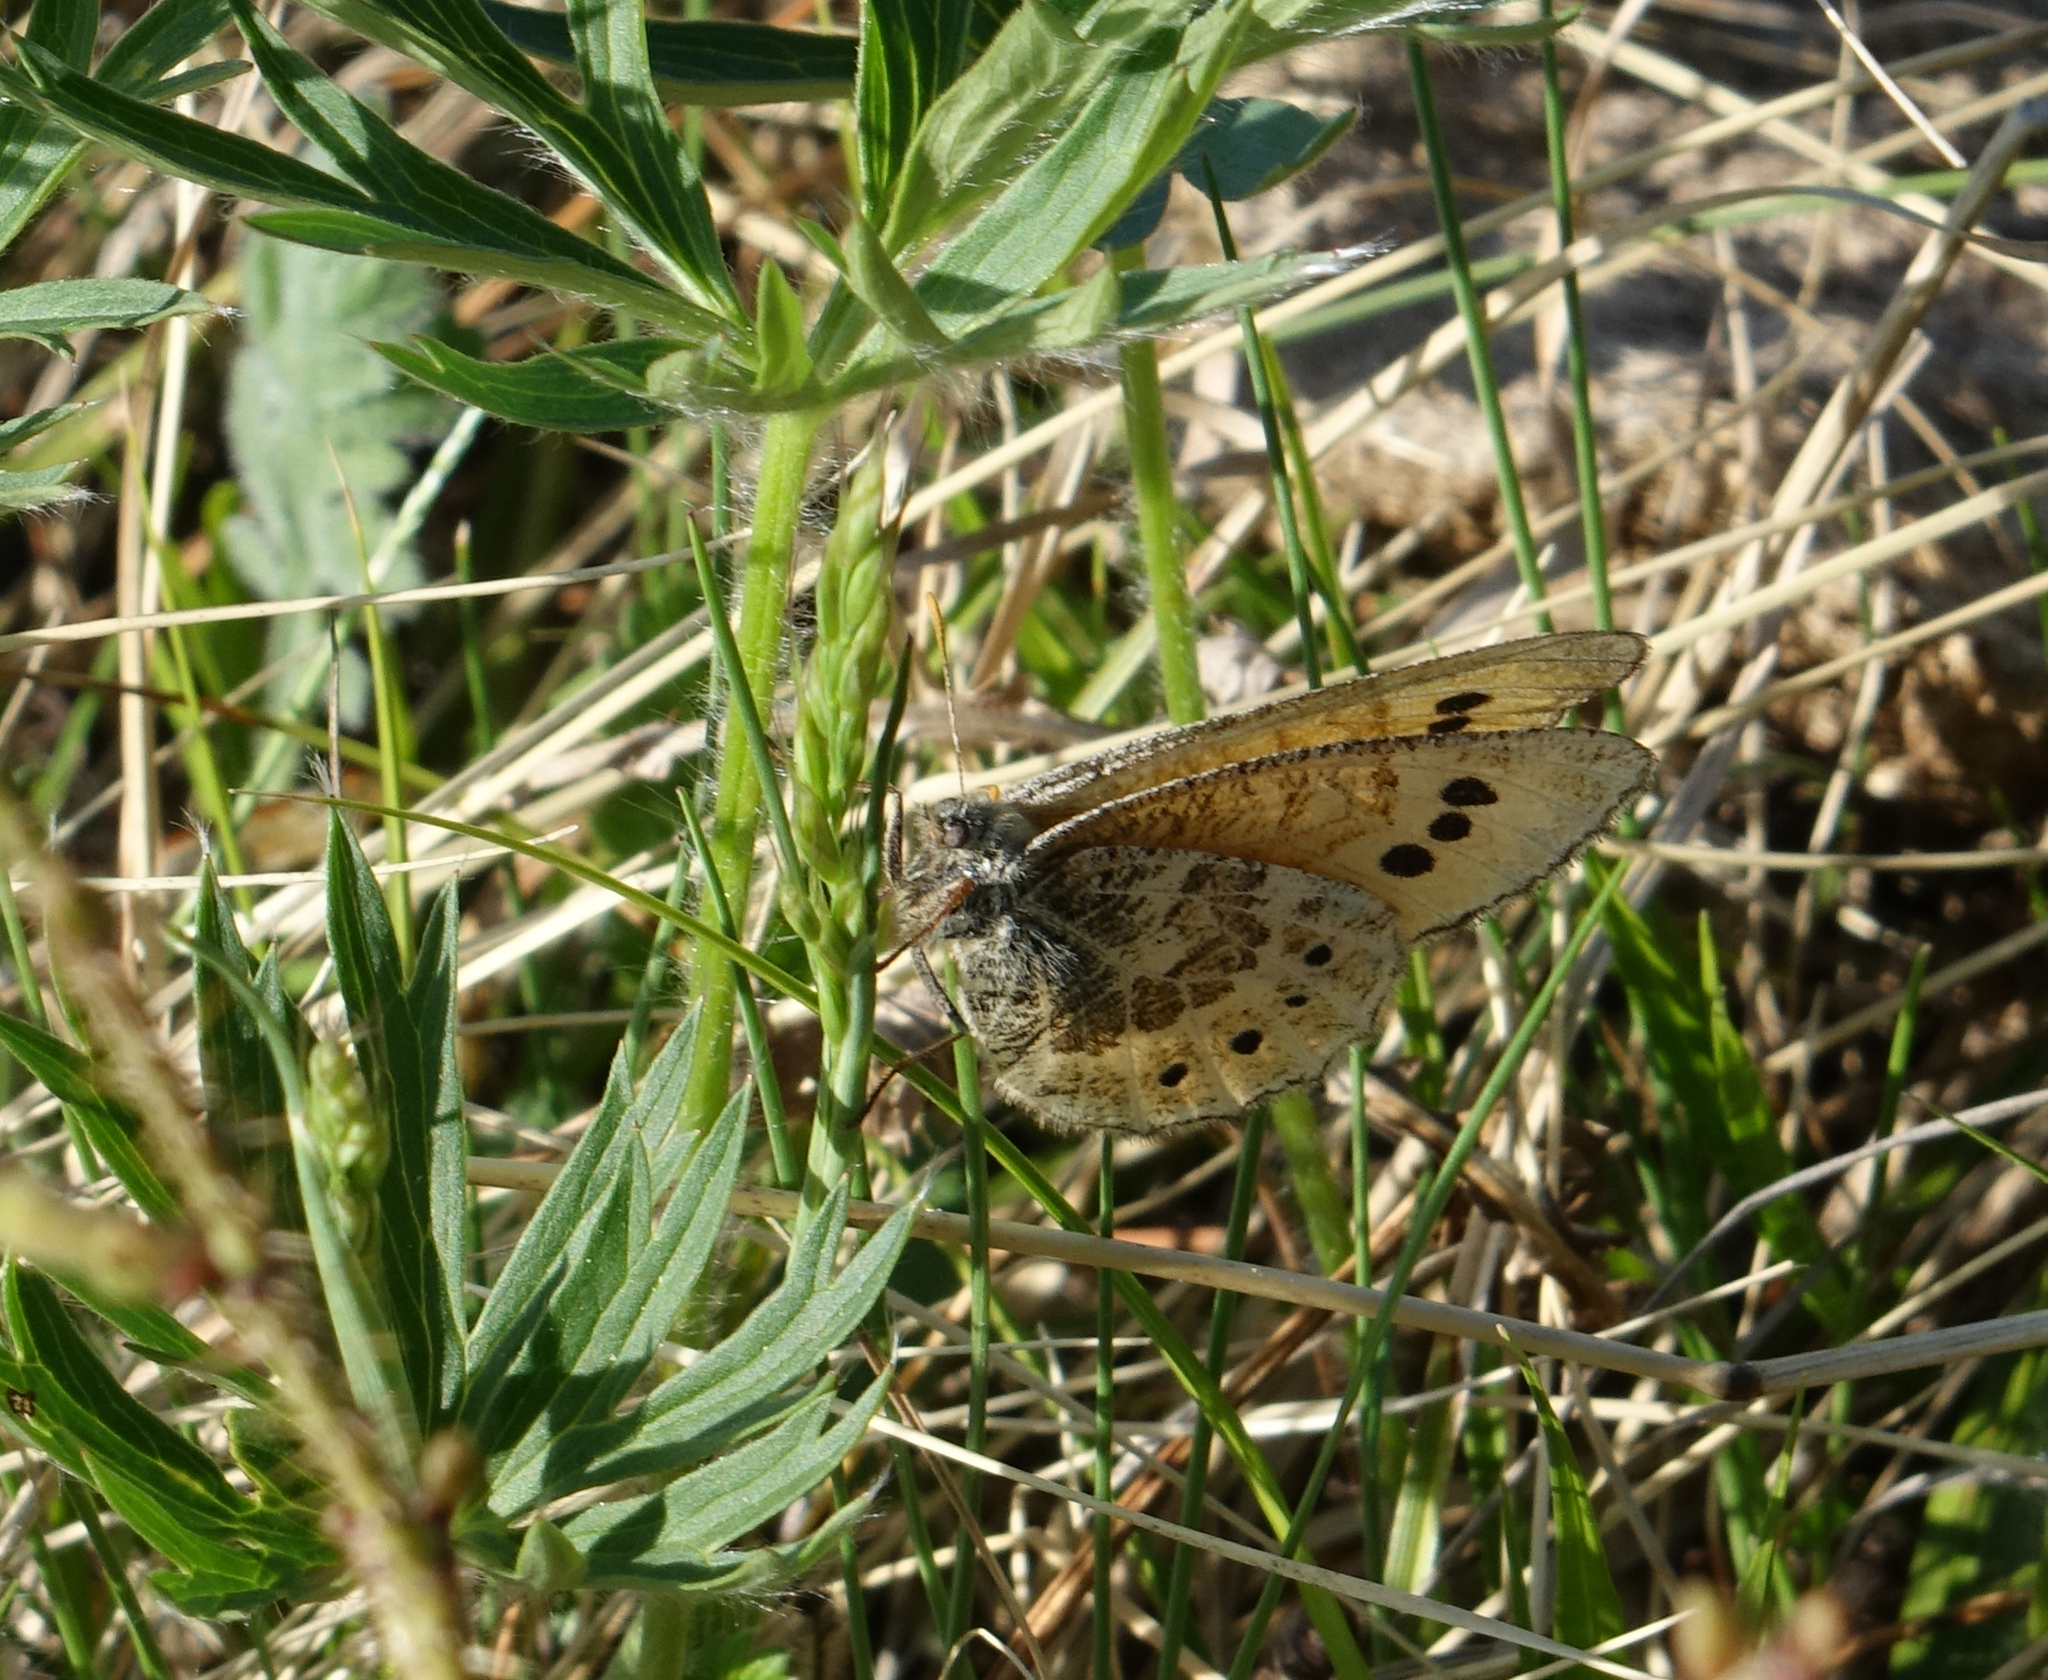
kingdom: Animalia
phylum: Arthropoda
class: Insecta
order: Lepidoptera
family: Nymphalidae
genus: Oeneis
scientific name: Oeneis tarpeia
